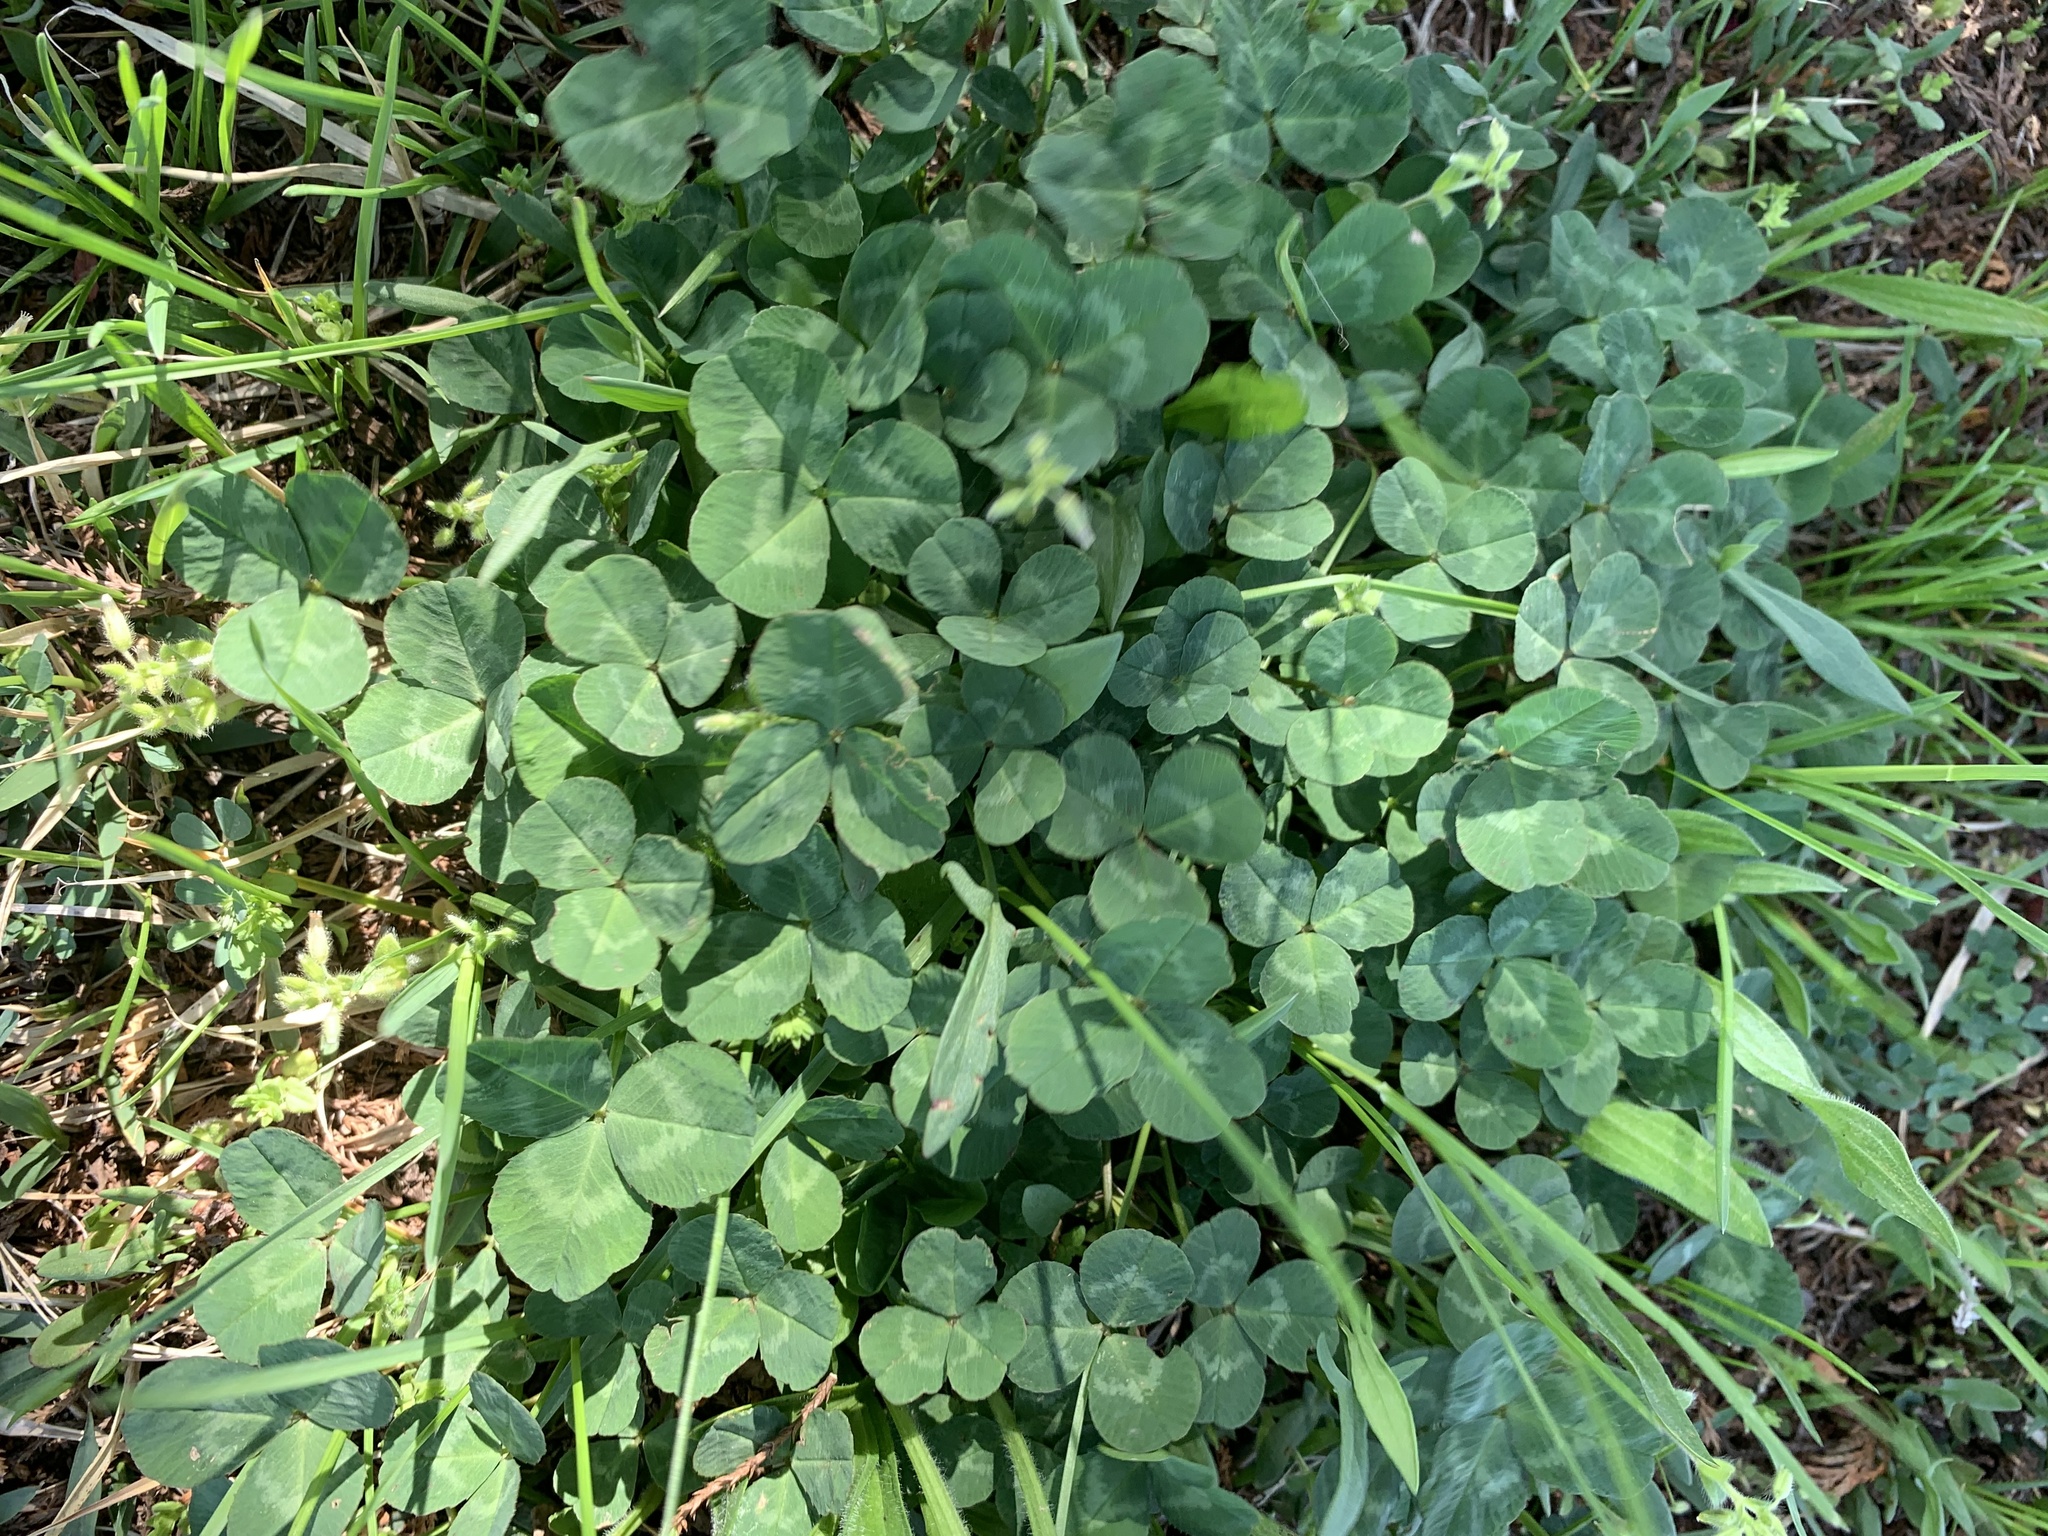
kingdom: Plantae
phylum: Tracheophyta
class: Magnoliopsida
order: Fabales
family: Fabaceae
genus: Trifolium
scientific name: Trifolium repens
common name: White clover
